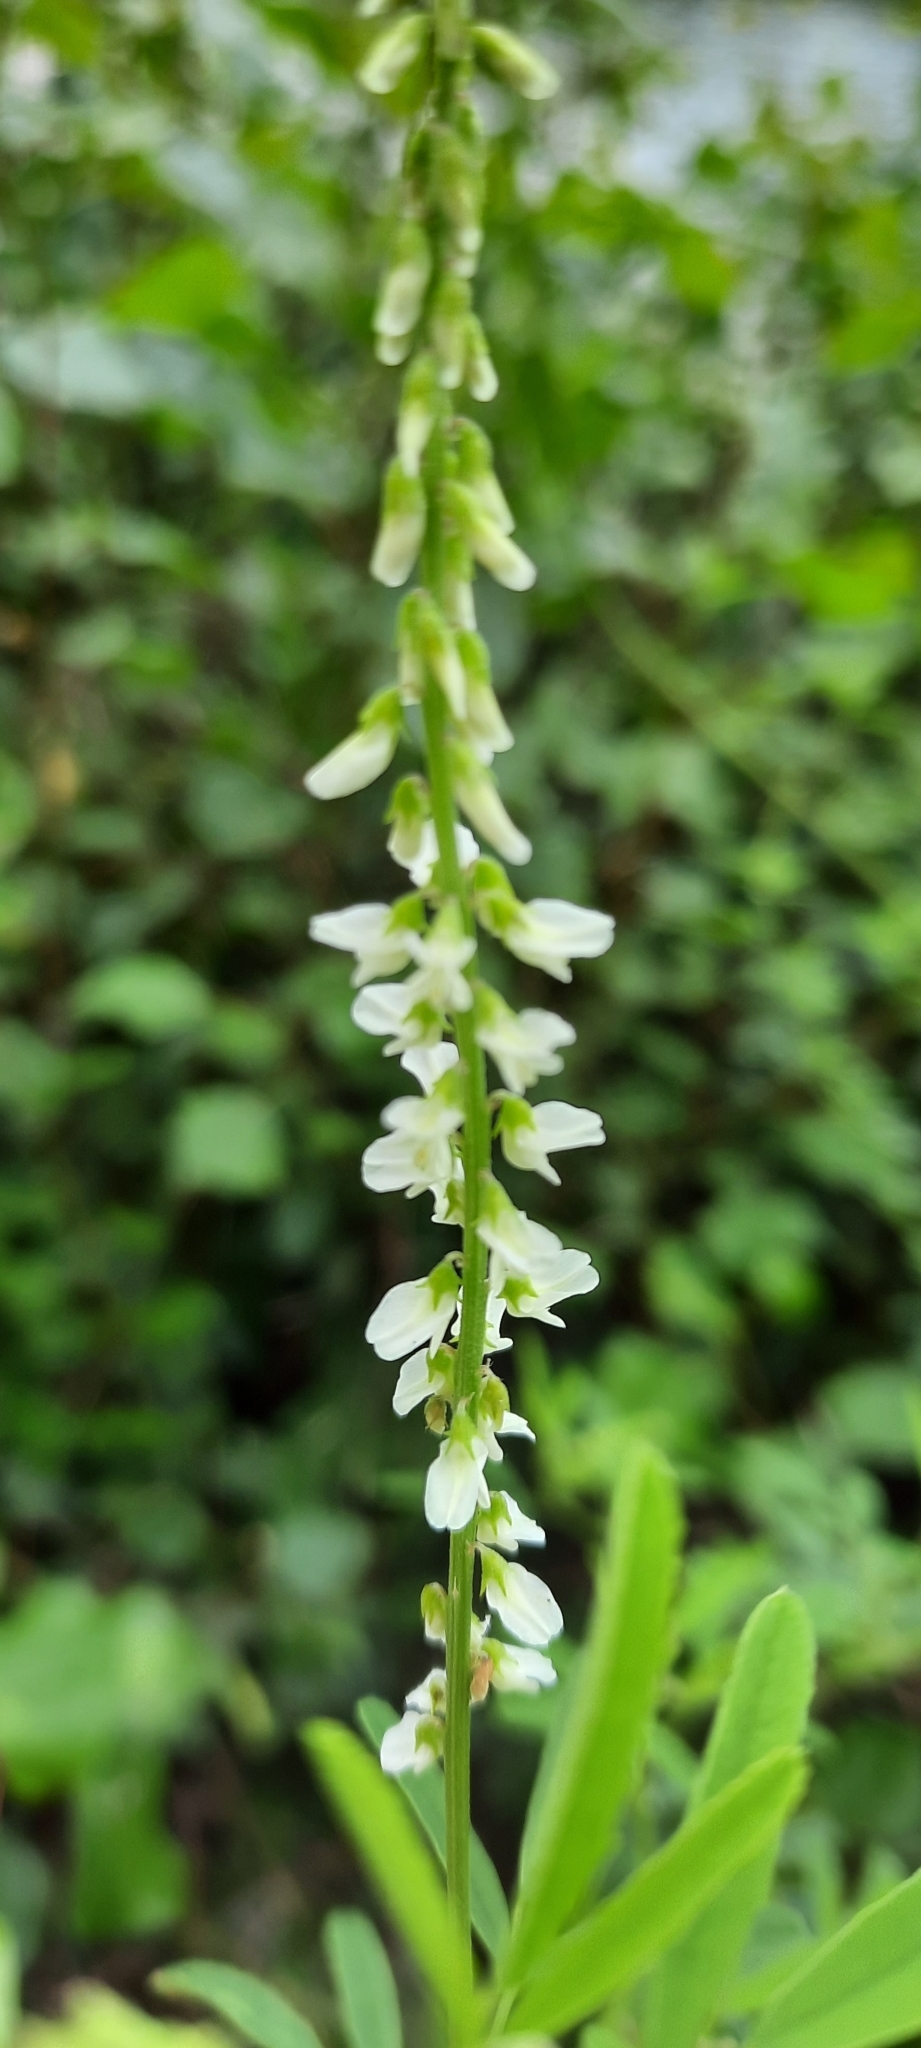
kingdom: Plantae
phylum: Tracheophyta
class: Magnoliopsida
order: Fabales
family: Fabaceae
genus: Melilotus
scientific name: Melilotus albus
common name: White melilot
